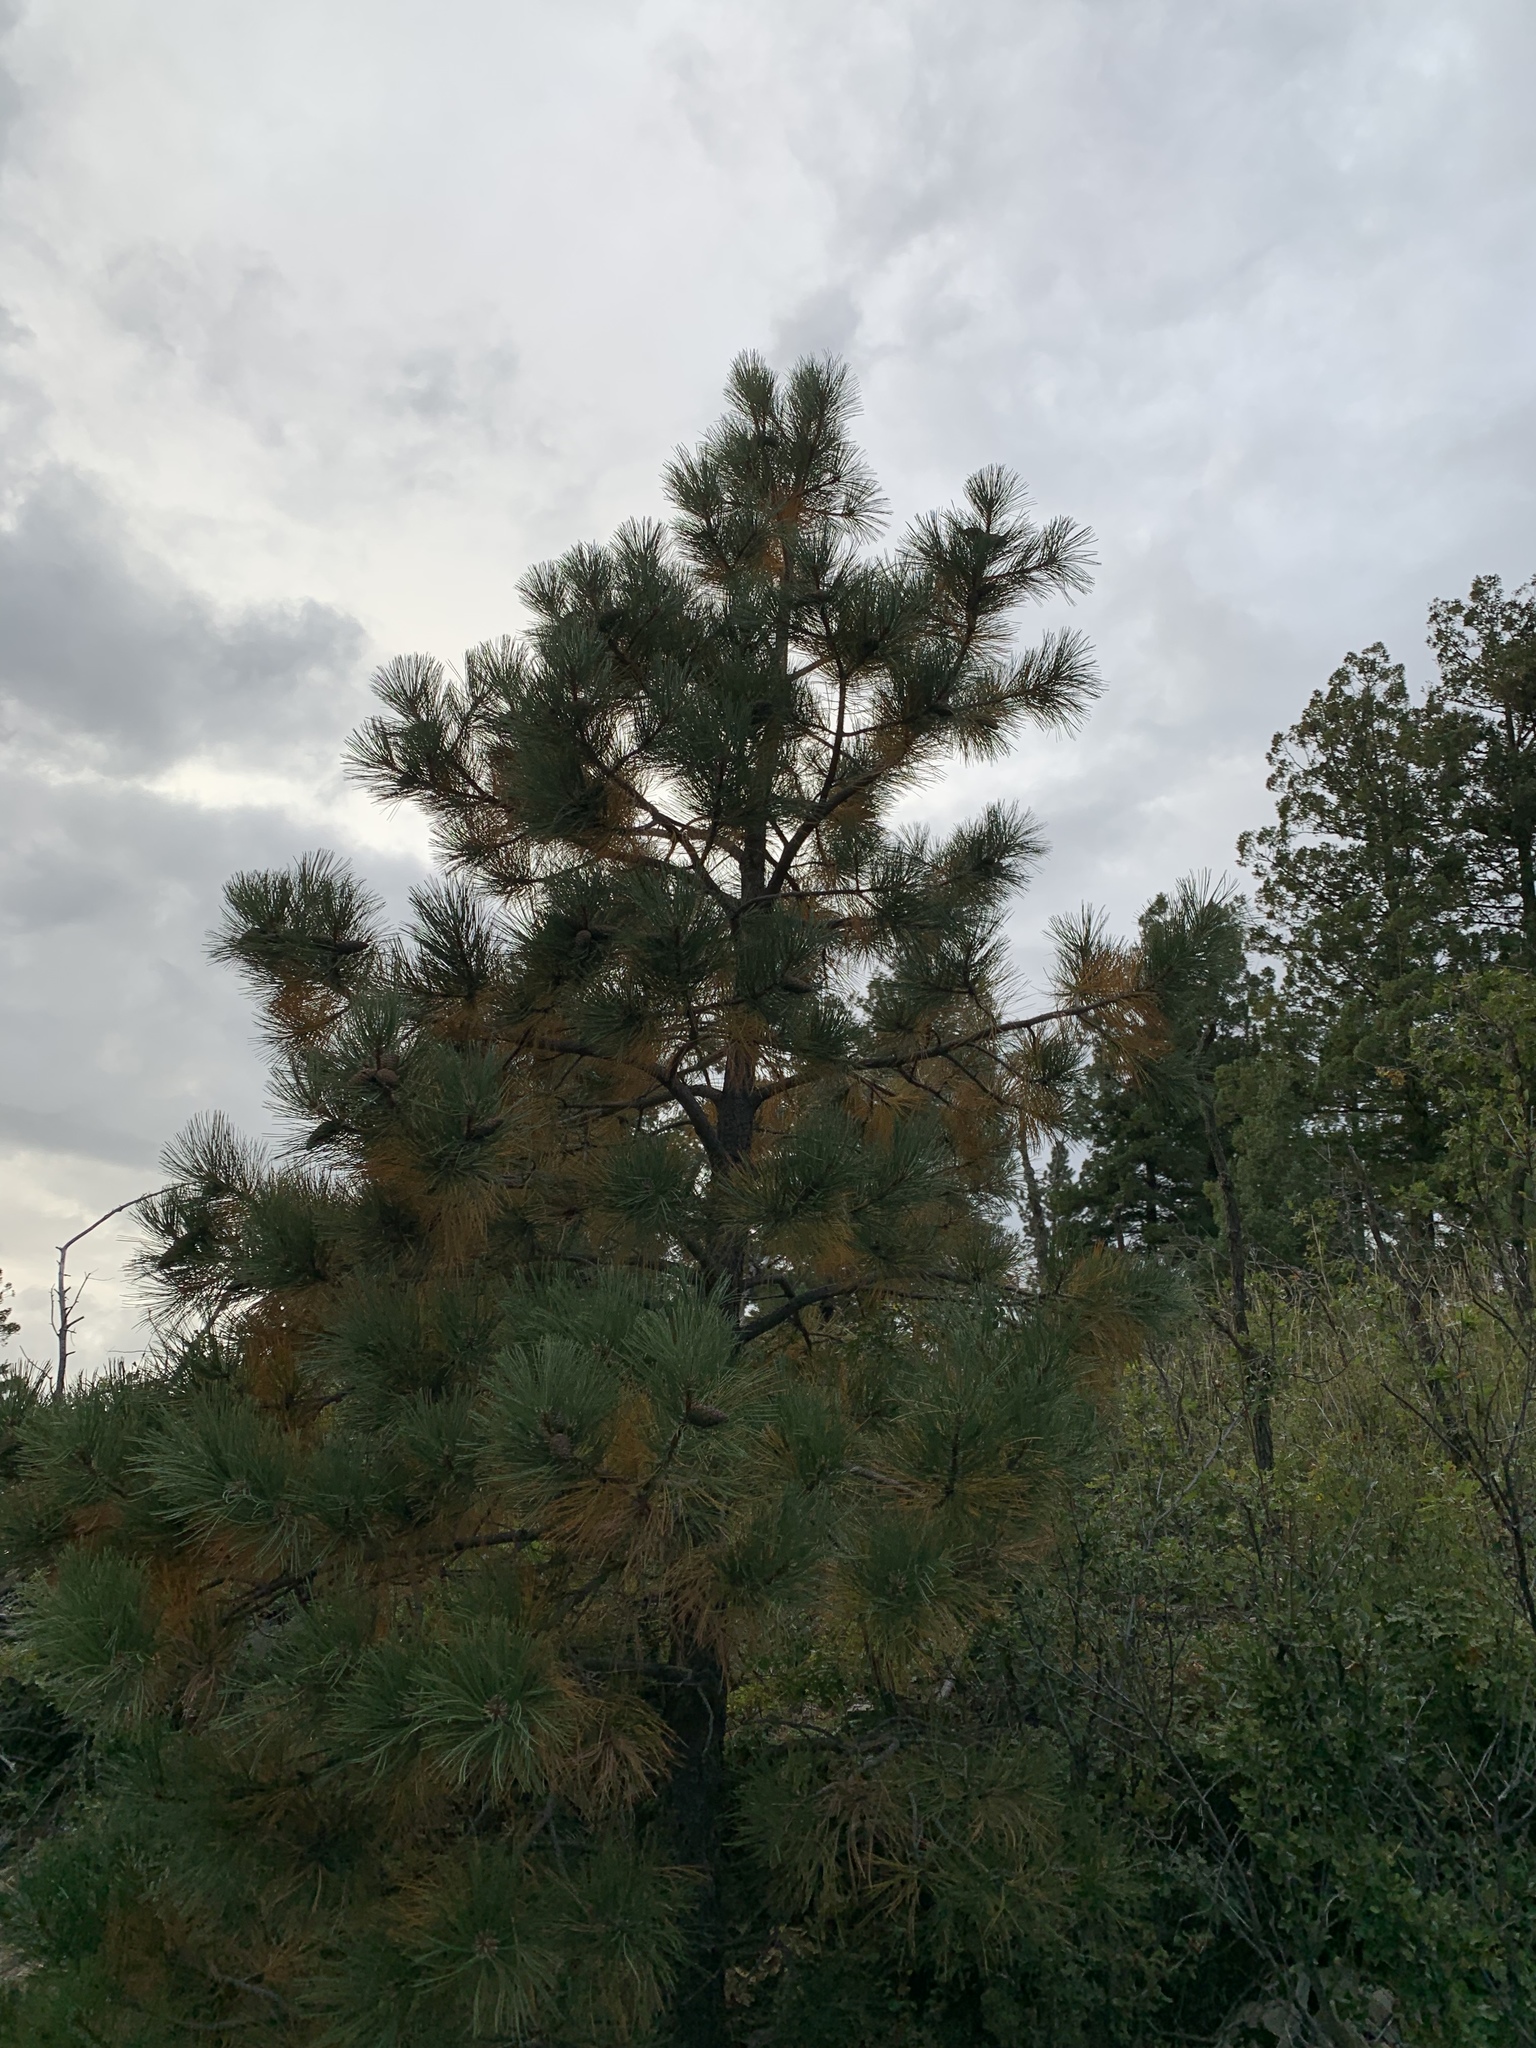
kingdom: Plantae
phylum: Tracheophyta
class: Pinopsida
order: Pinales
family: Pinaceae
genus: Pinus
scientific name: Pinus ponderosa
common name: Western yellow-pine
